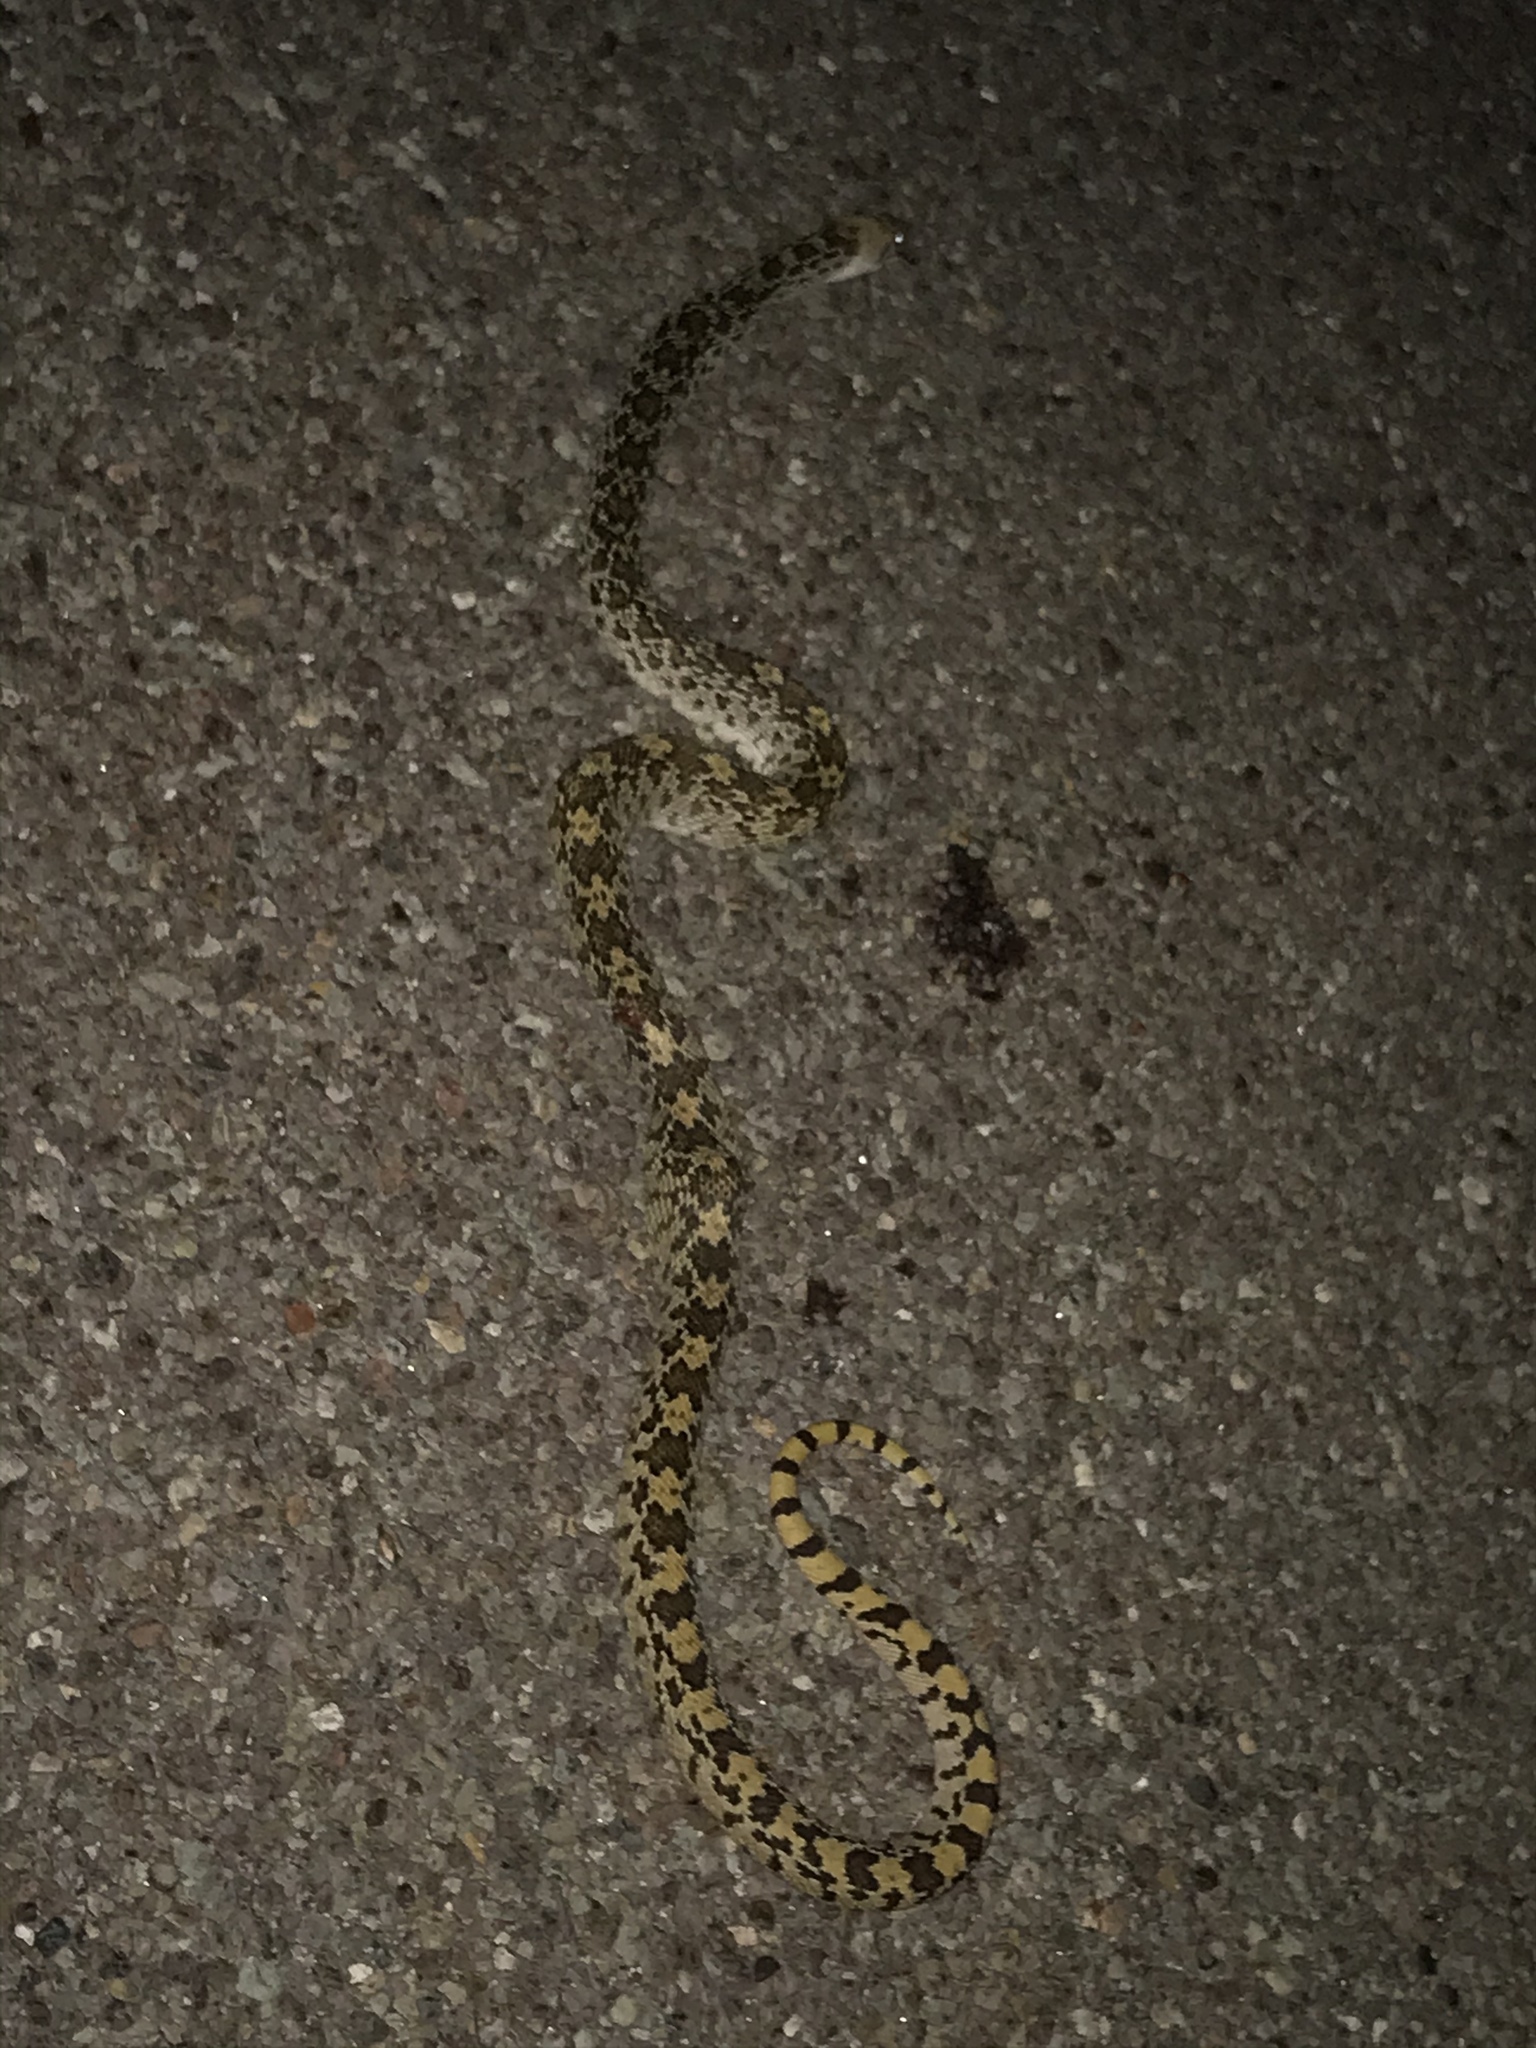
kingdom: Animalia
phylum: Chordata
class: Squamata
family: Colubridae
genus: Pituophis
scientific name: Pituophis catenifer
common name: Gopher snake
